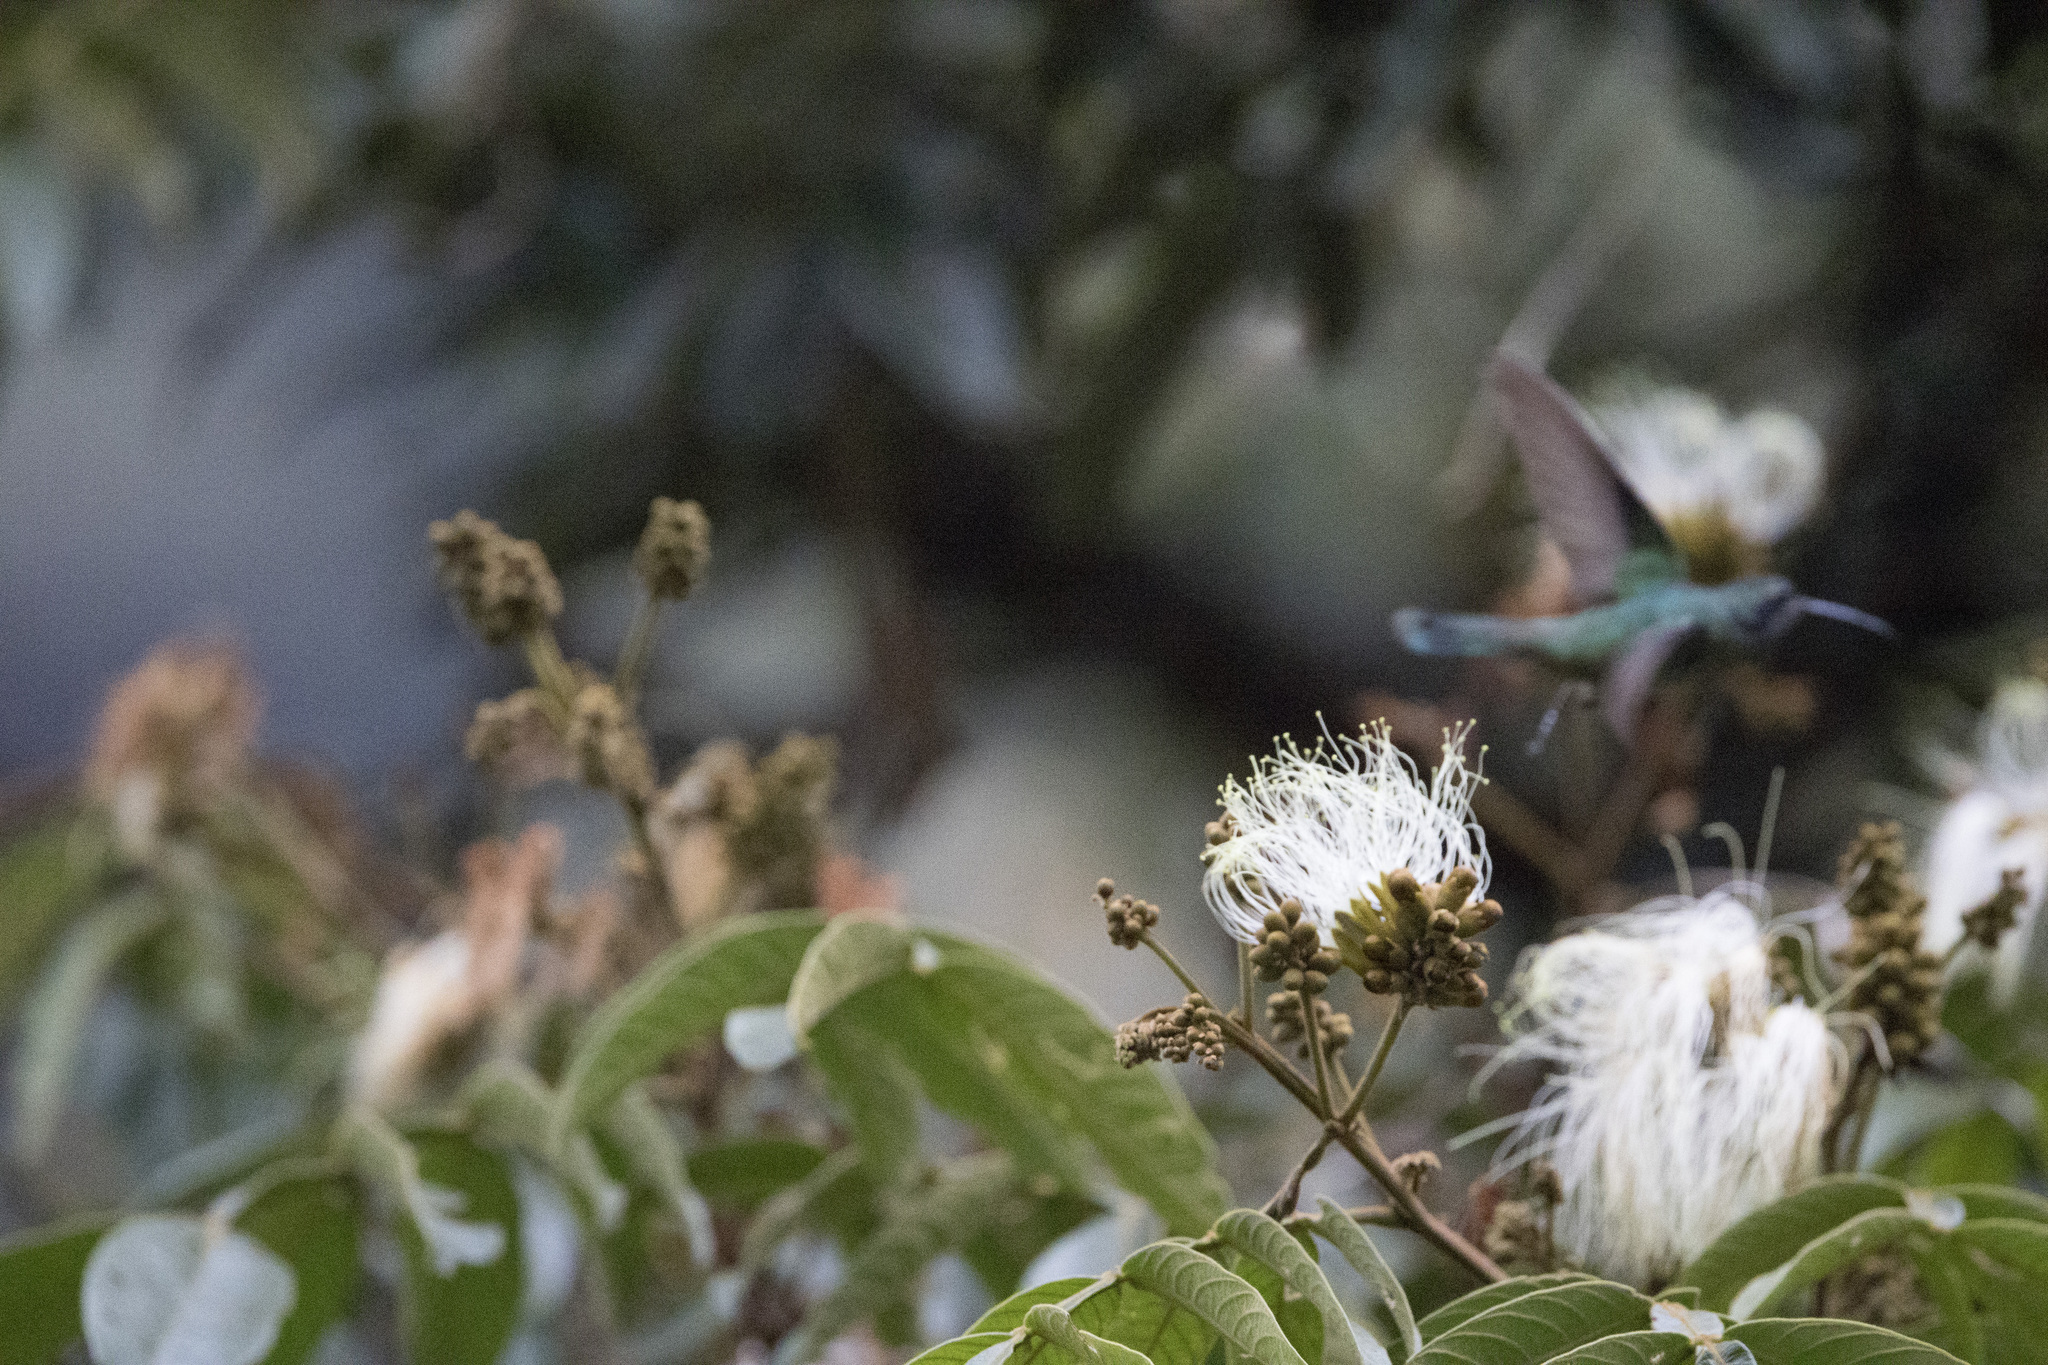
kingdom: Animalia
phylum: Chordata
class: Aves
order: Apodiformes
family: Trochilidae
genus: Colibri
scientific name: Colibri coruscans
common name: Sparkling violetear
